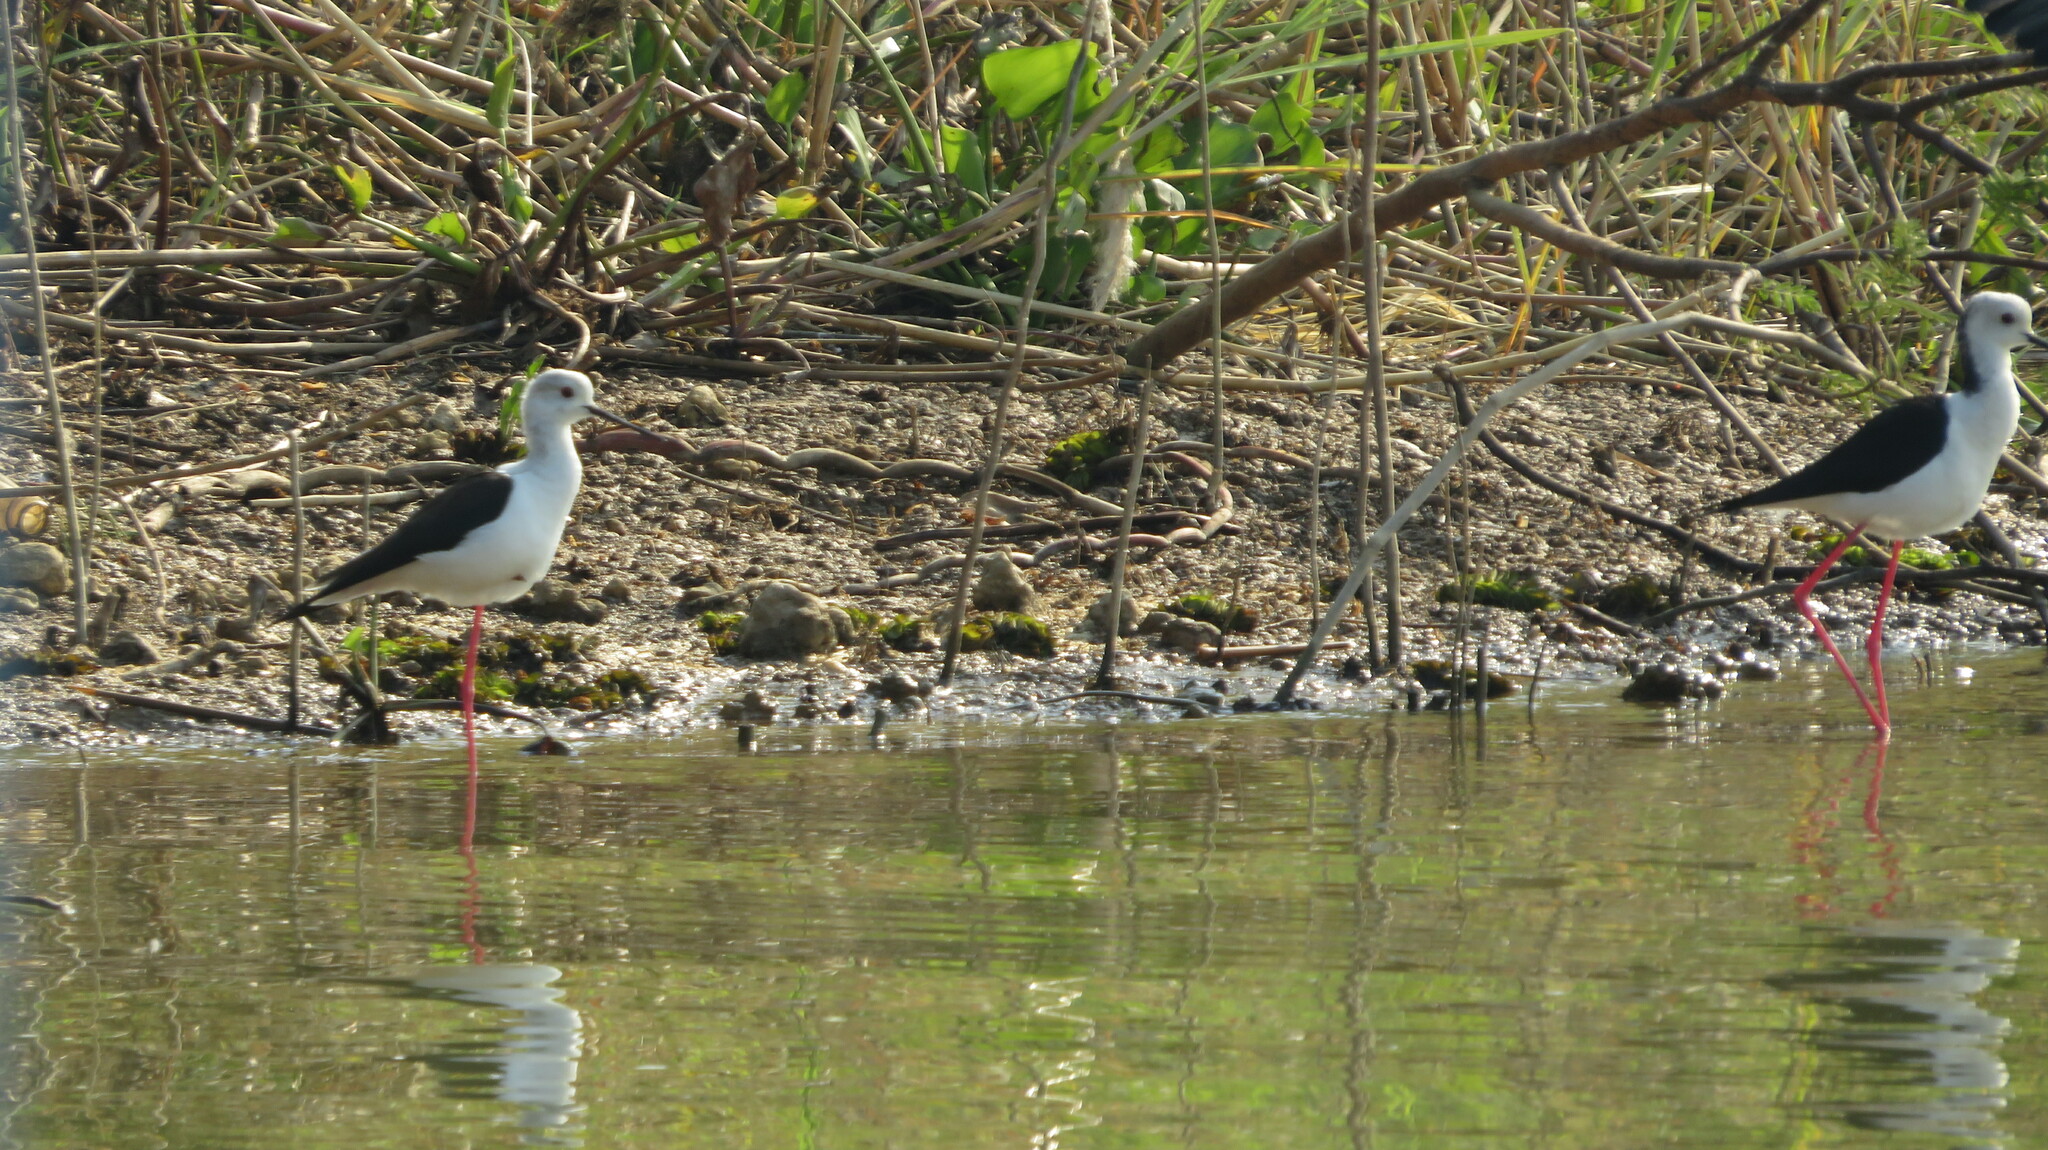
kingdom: Animalia
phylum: Chordata
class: Aves
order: Charadriiformes
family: Recurvirostridae
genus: Himantopus
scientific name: Himantopus himantopus
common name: Black-winged stilt
